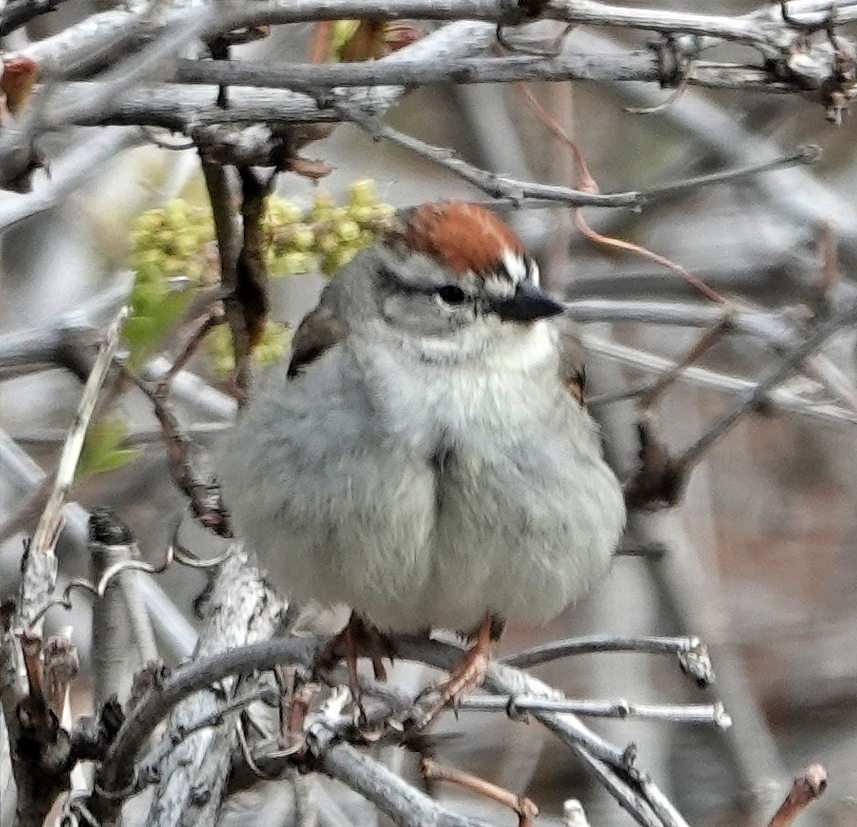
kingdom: Animalia
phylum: Chordata
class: Aves
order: Passeriformes
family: Passerellidae
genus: Spizella
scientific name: Spizella passerina
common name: Chipping sparrow
